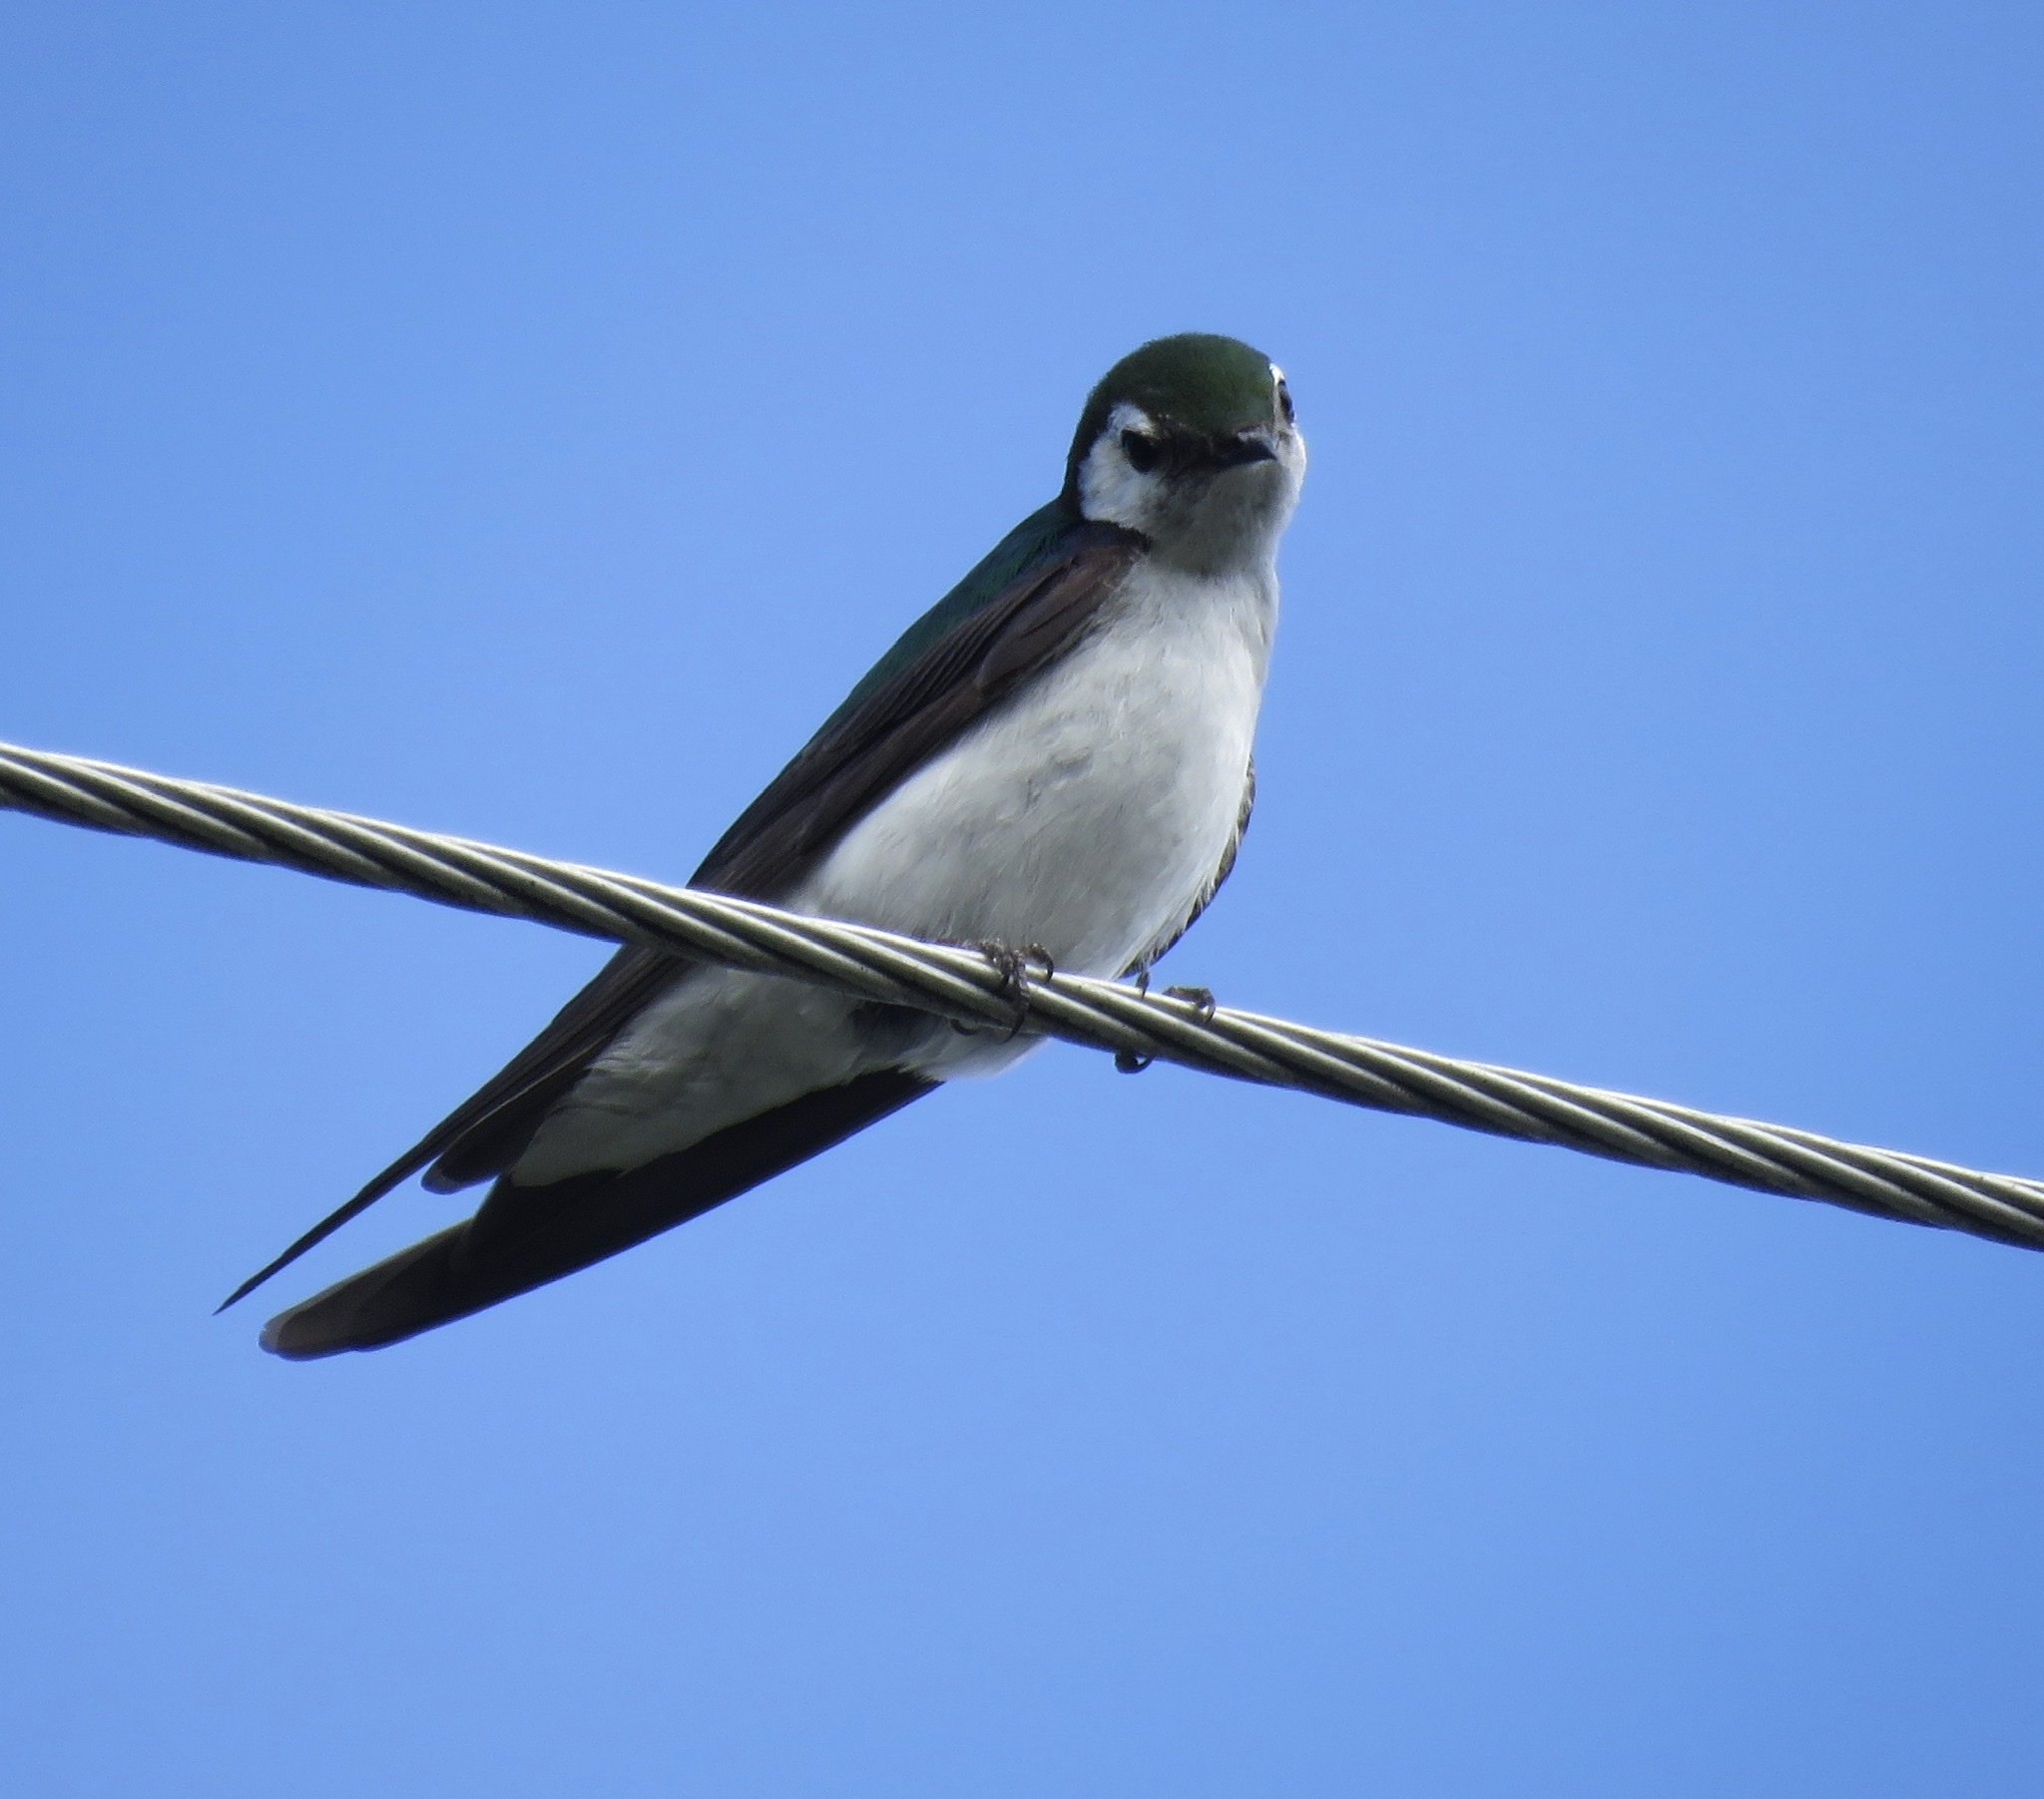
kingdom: Animalia
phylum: Chordata
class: Aves
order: Passeriformes
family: Hirundinidae
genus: Tachycineta
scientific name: Tachycineta thalassina
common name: Violet-green swallow
